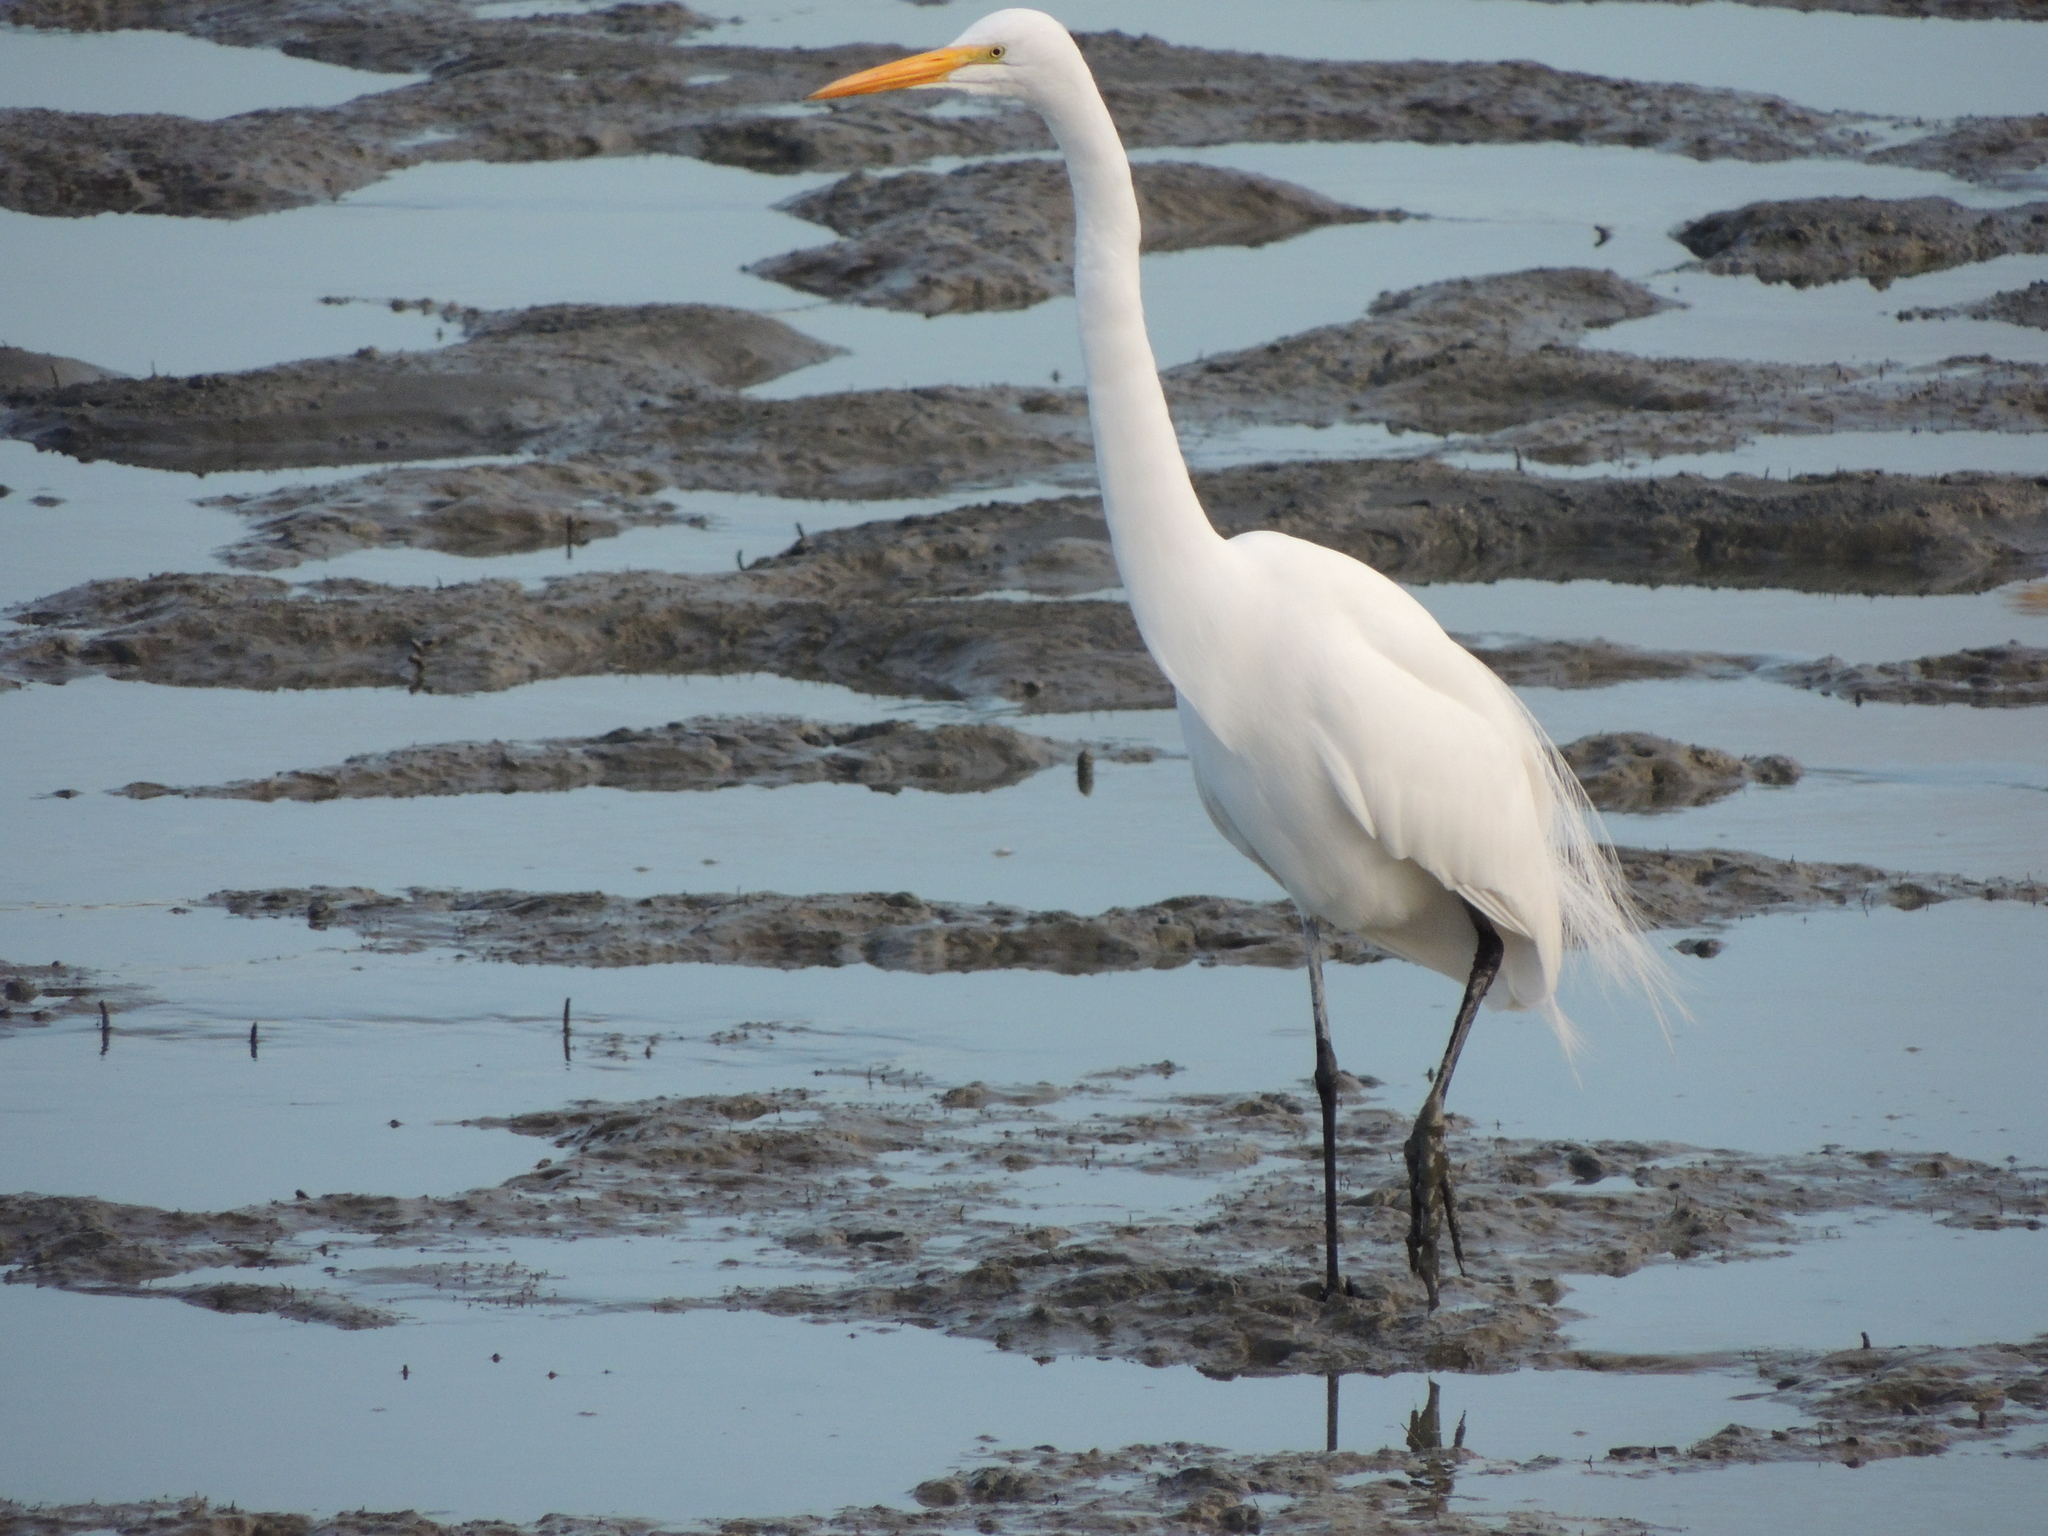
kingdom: Animalia
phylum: Chordata
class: Aves
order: Pelecaniformes
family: Ardeidae
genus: Ardea
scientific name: Ardea alba
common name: Great egret
